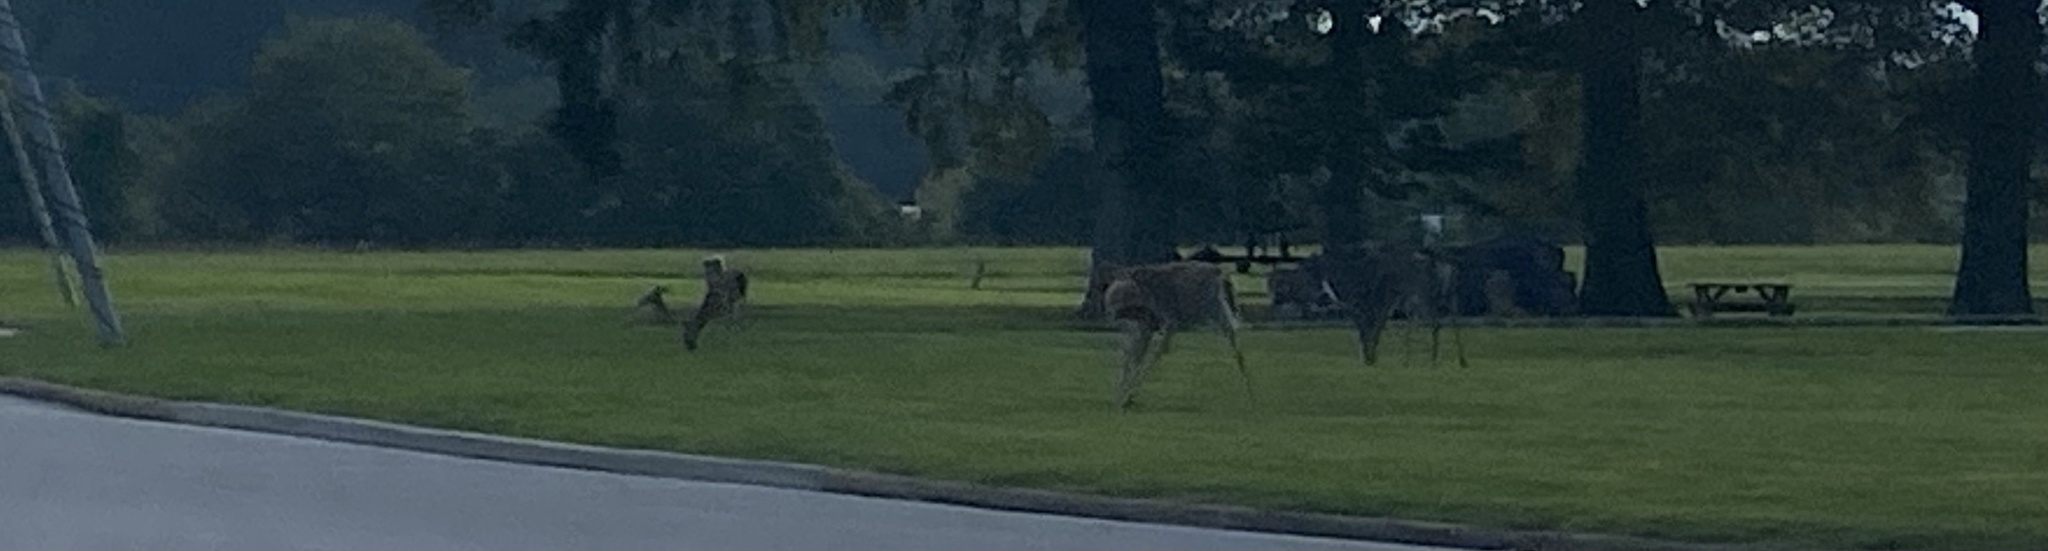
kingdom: Animalia
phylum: Chordata
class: Mammalia
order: Artiodactyla
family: Cervidae
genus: Odocoileus
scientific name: Odocoileus virginianus
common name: White-tailed deer
